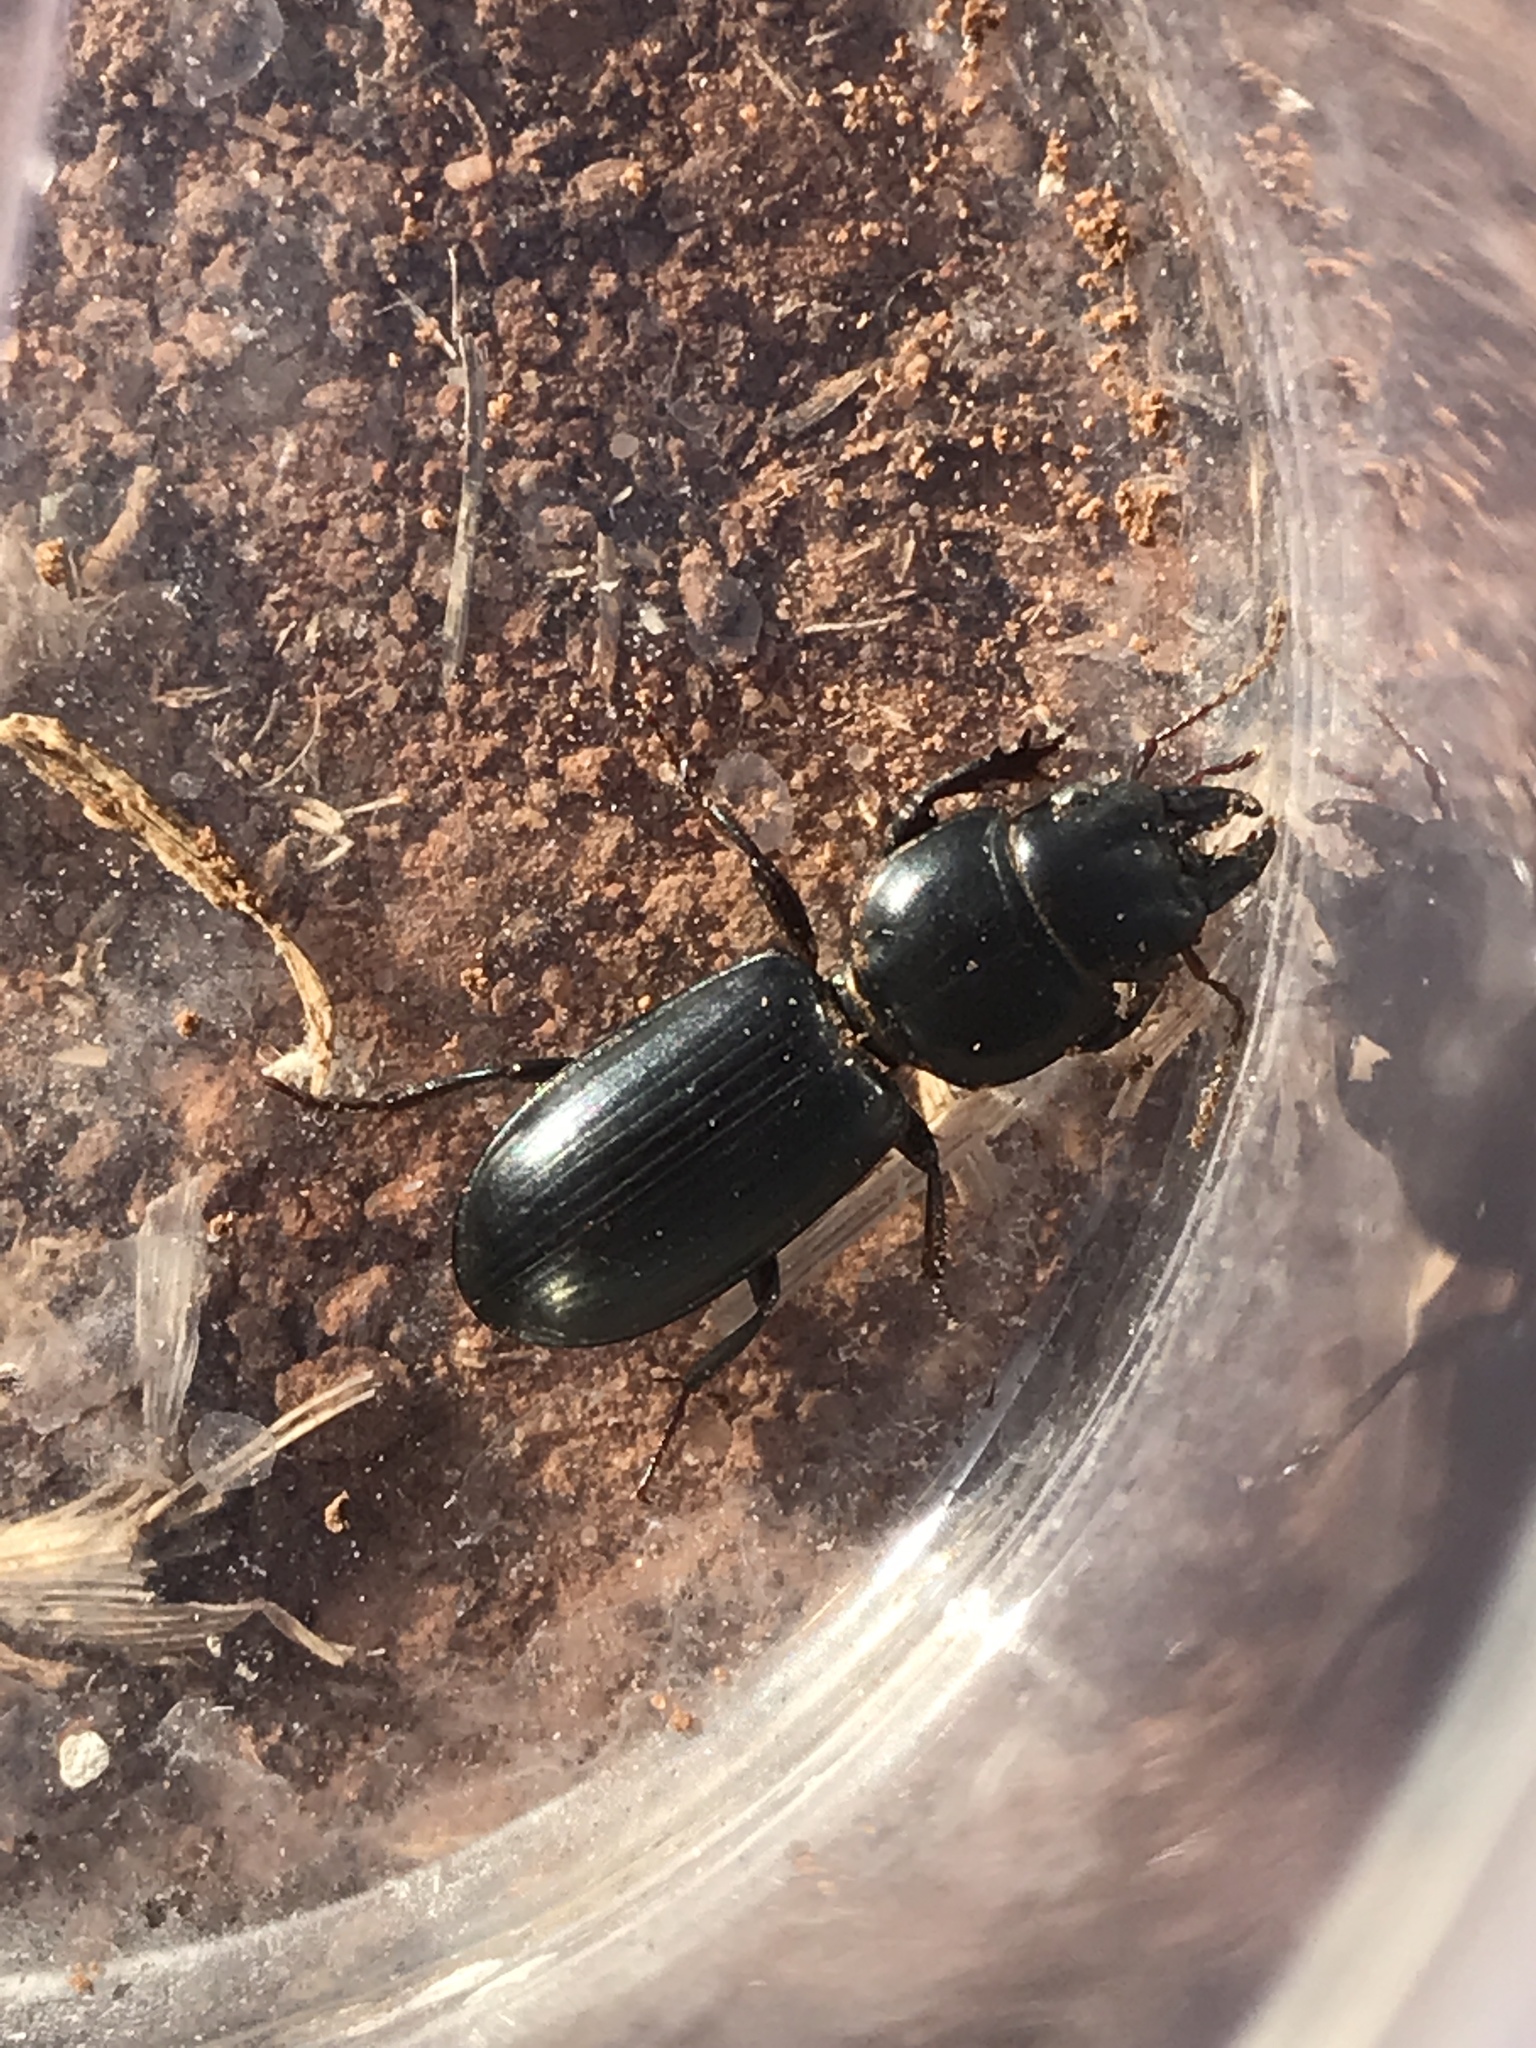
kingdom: Animalia
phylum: Arthropoda
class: Insecta
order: Coleoptera
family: Carabidae
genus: Scarites
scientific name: Scarites subterraneus
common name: Big-headed ground beetle
